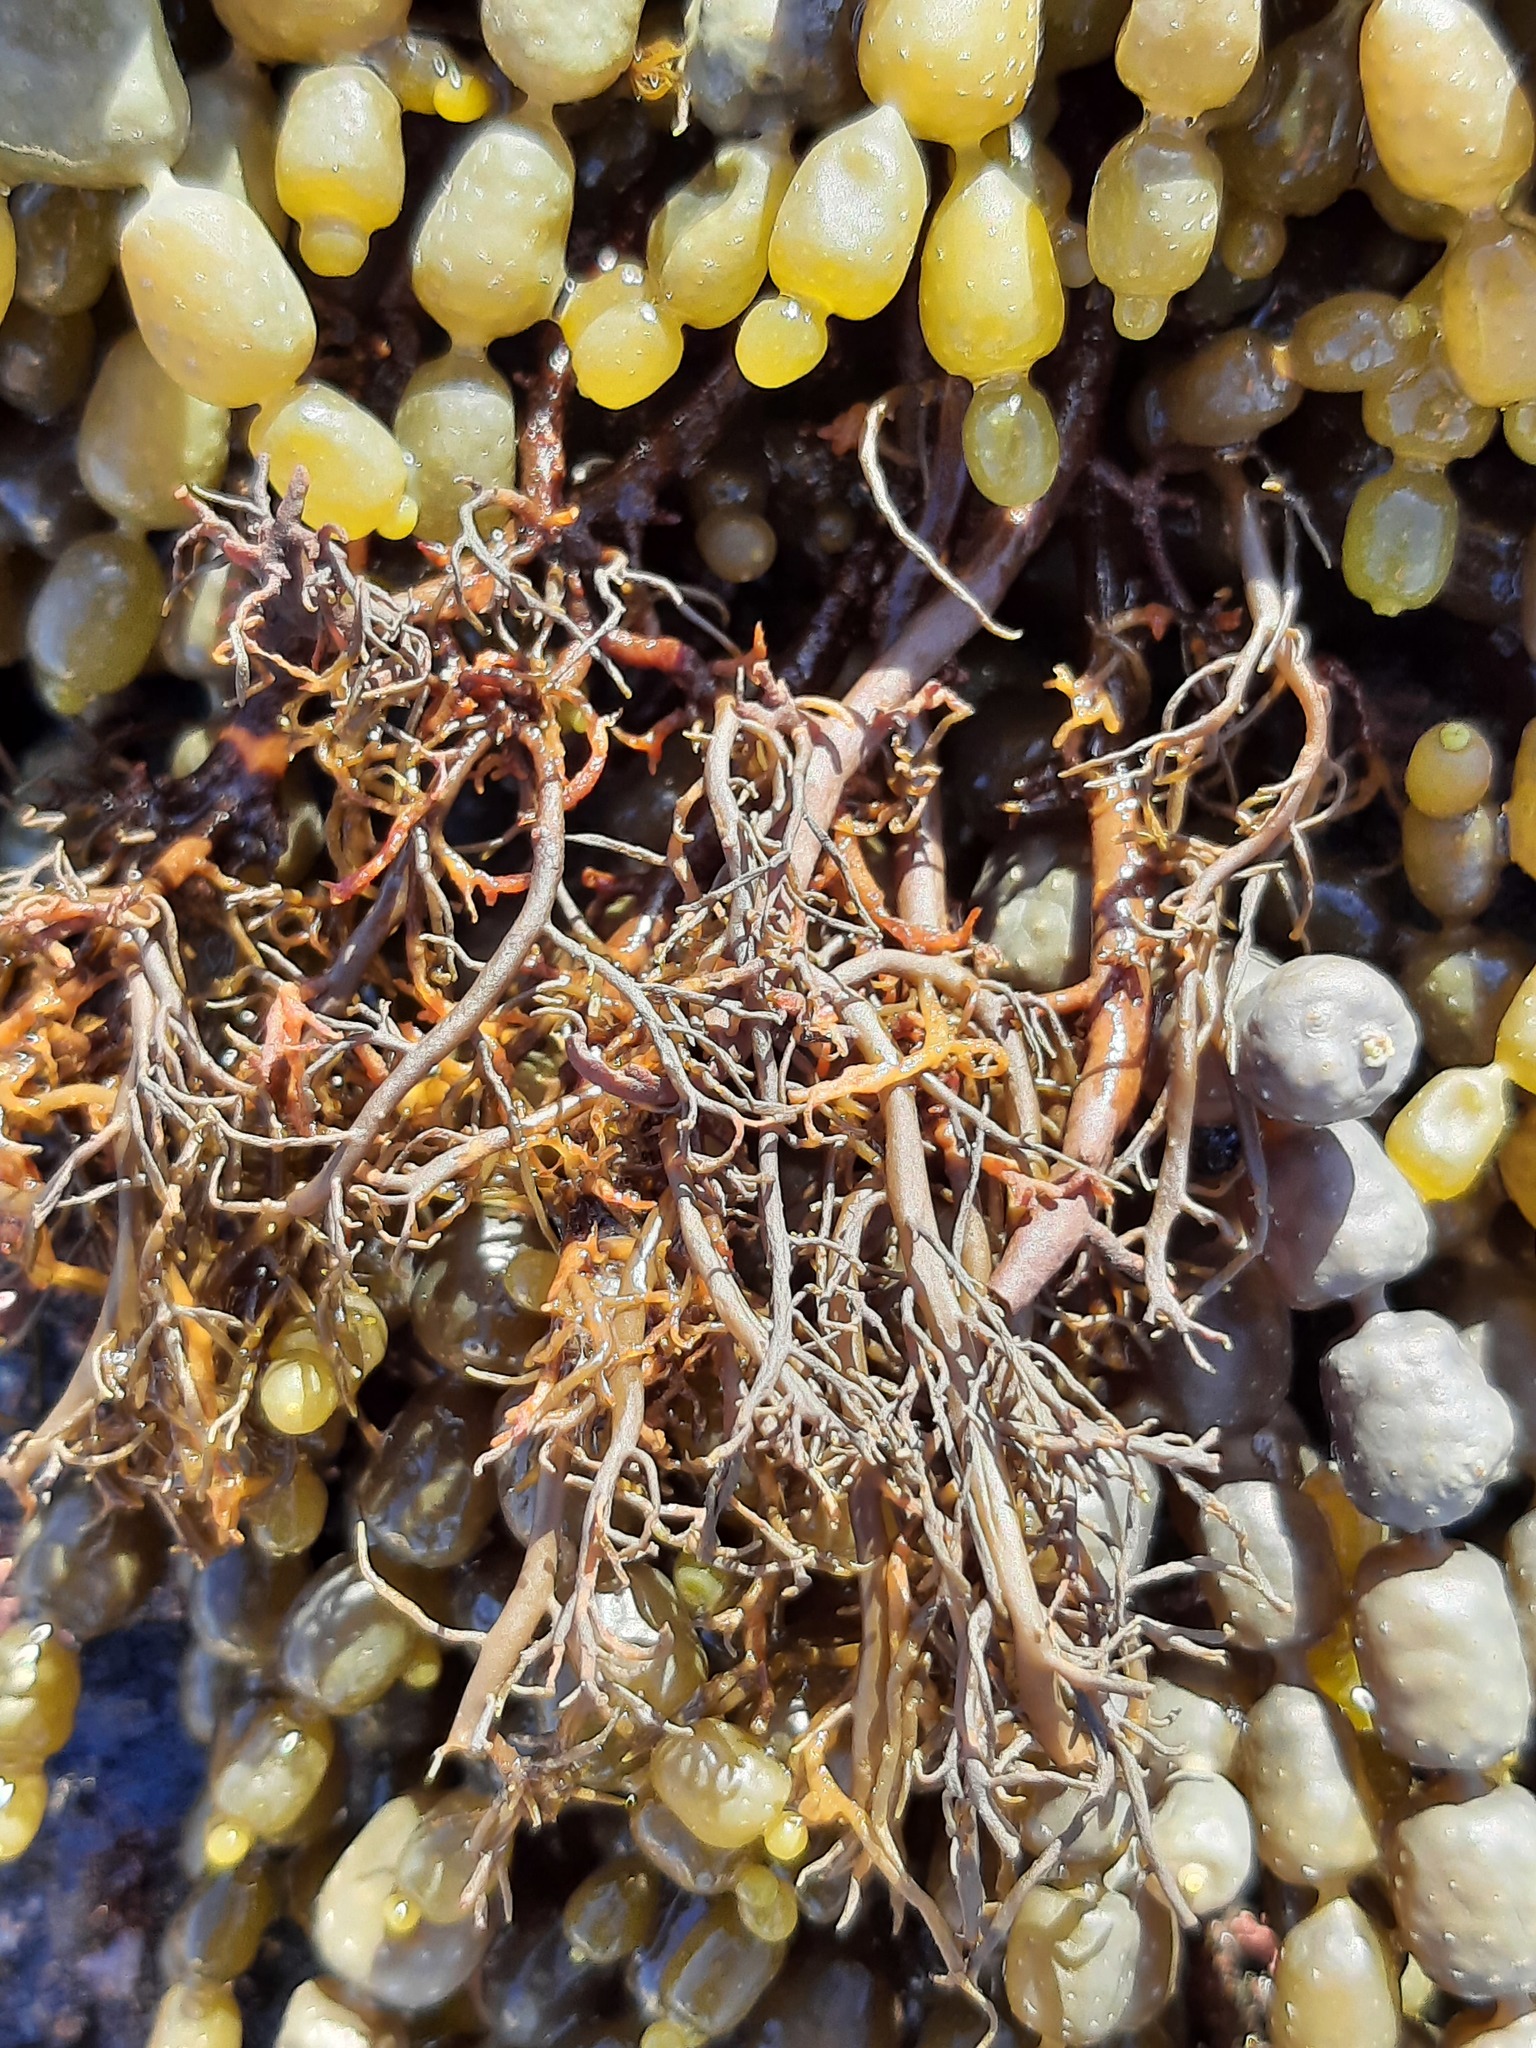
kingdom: Chromista
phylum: Ochrophyta
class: Phaeophyceae
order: Scytothamnales
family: Scytothamnaceae
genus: Scytothamnus
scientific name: Scytothamnus australis
